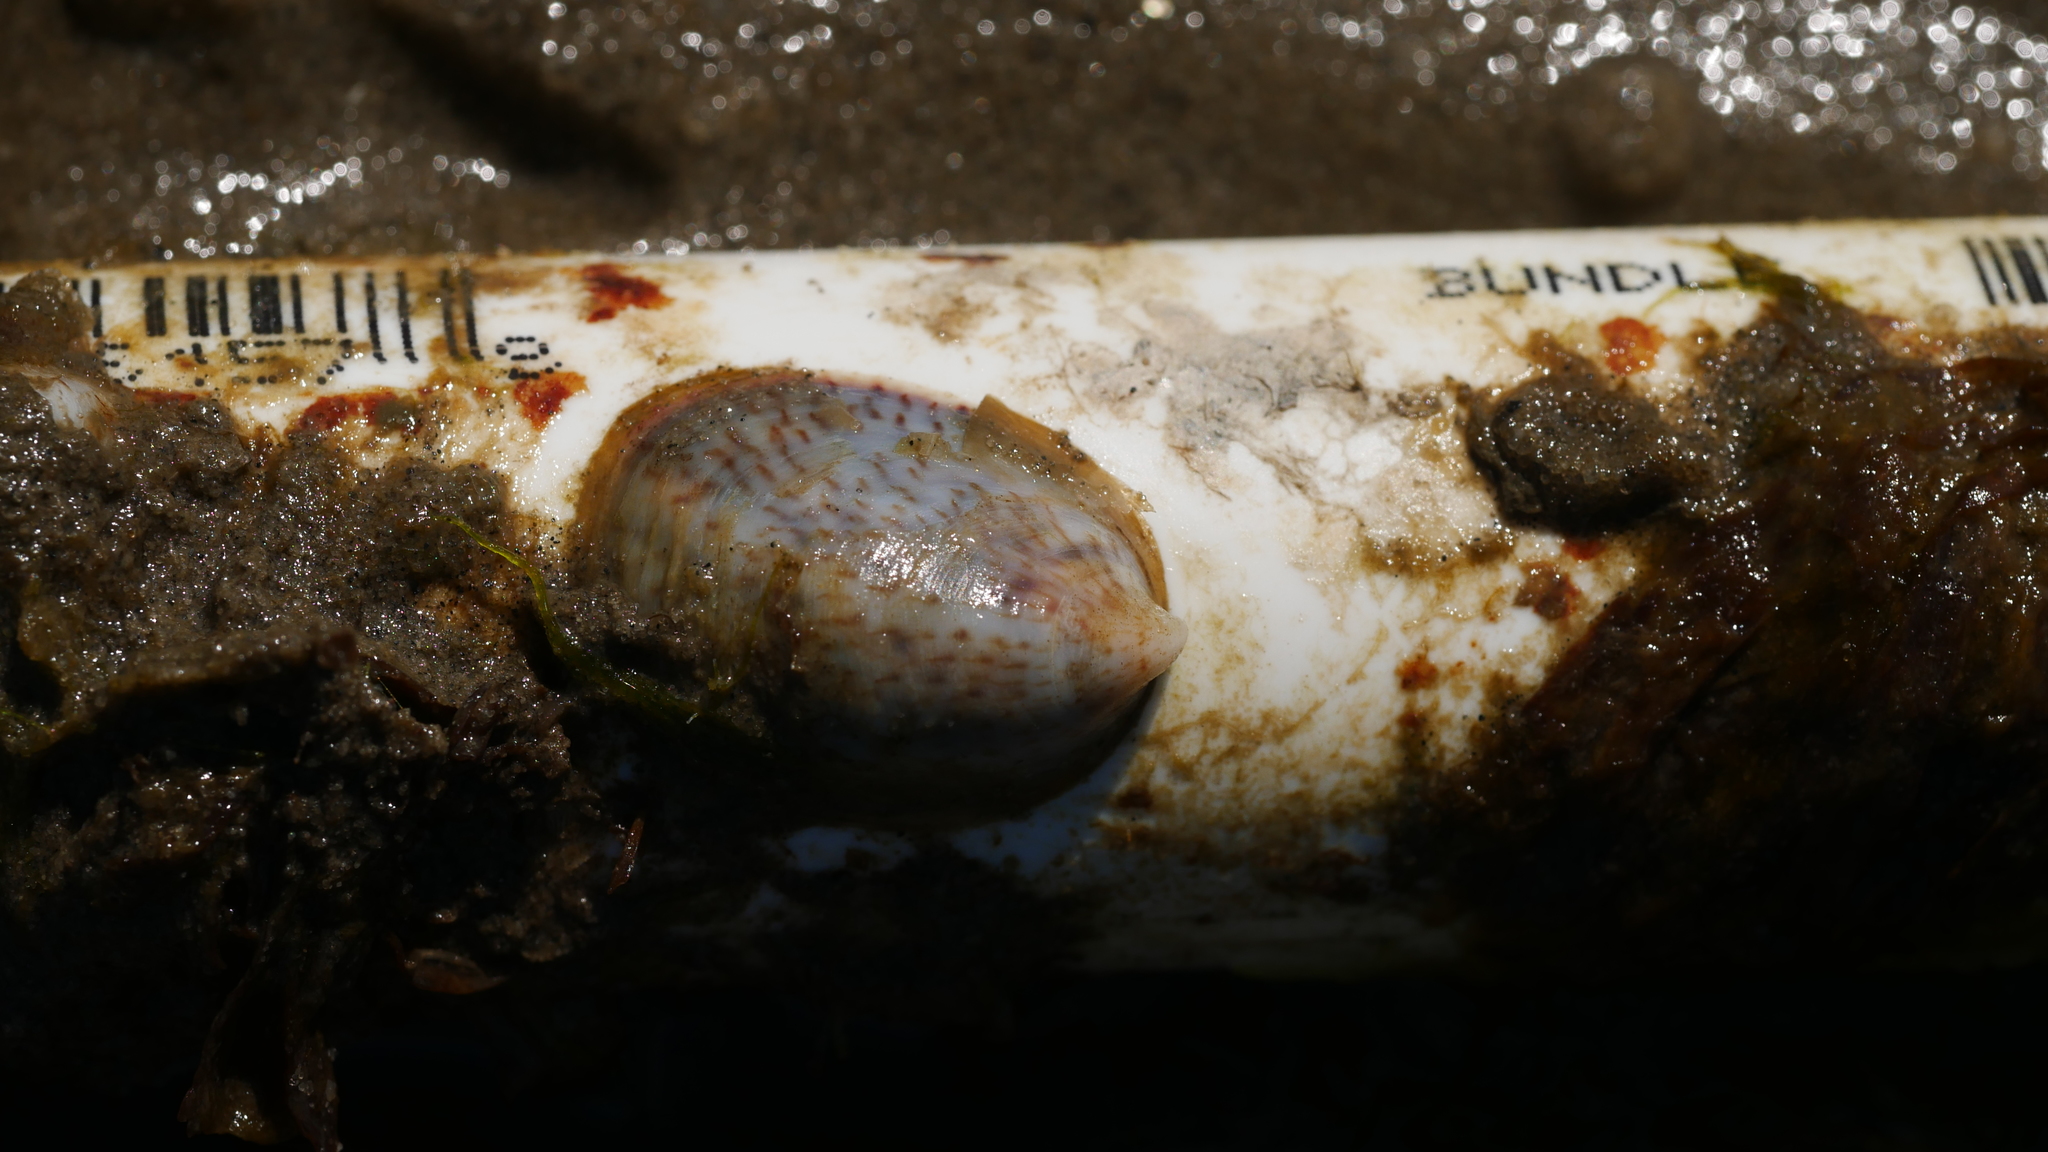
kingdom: Animalia
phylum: Mollusca
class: Gastropoda
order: Littorinimorpha
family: Calyptraeidae
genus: Crepidula
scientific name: Crepidula fornicata
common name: Slipper limpet
